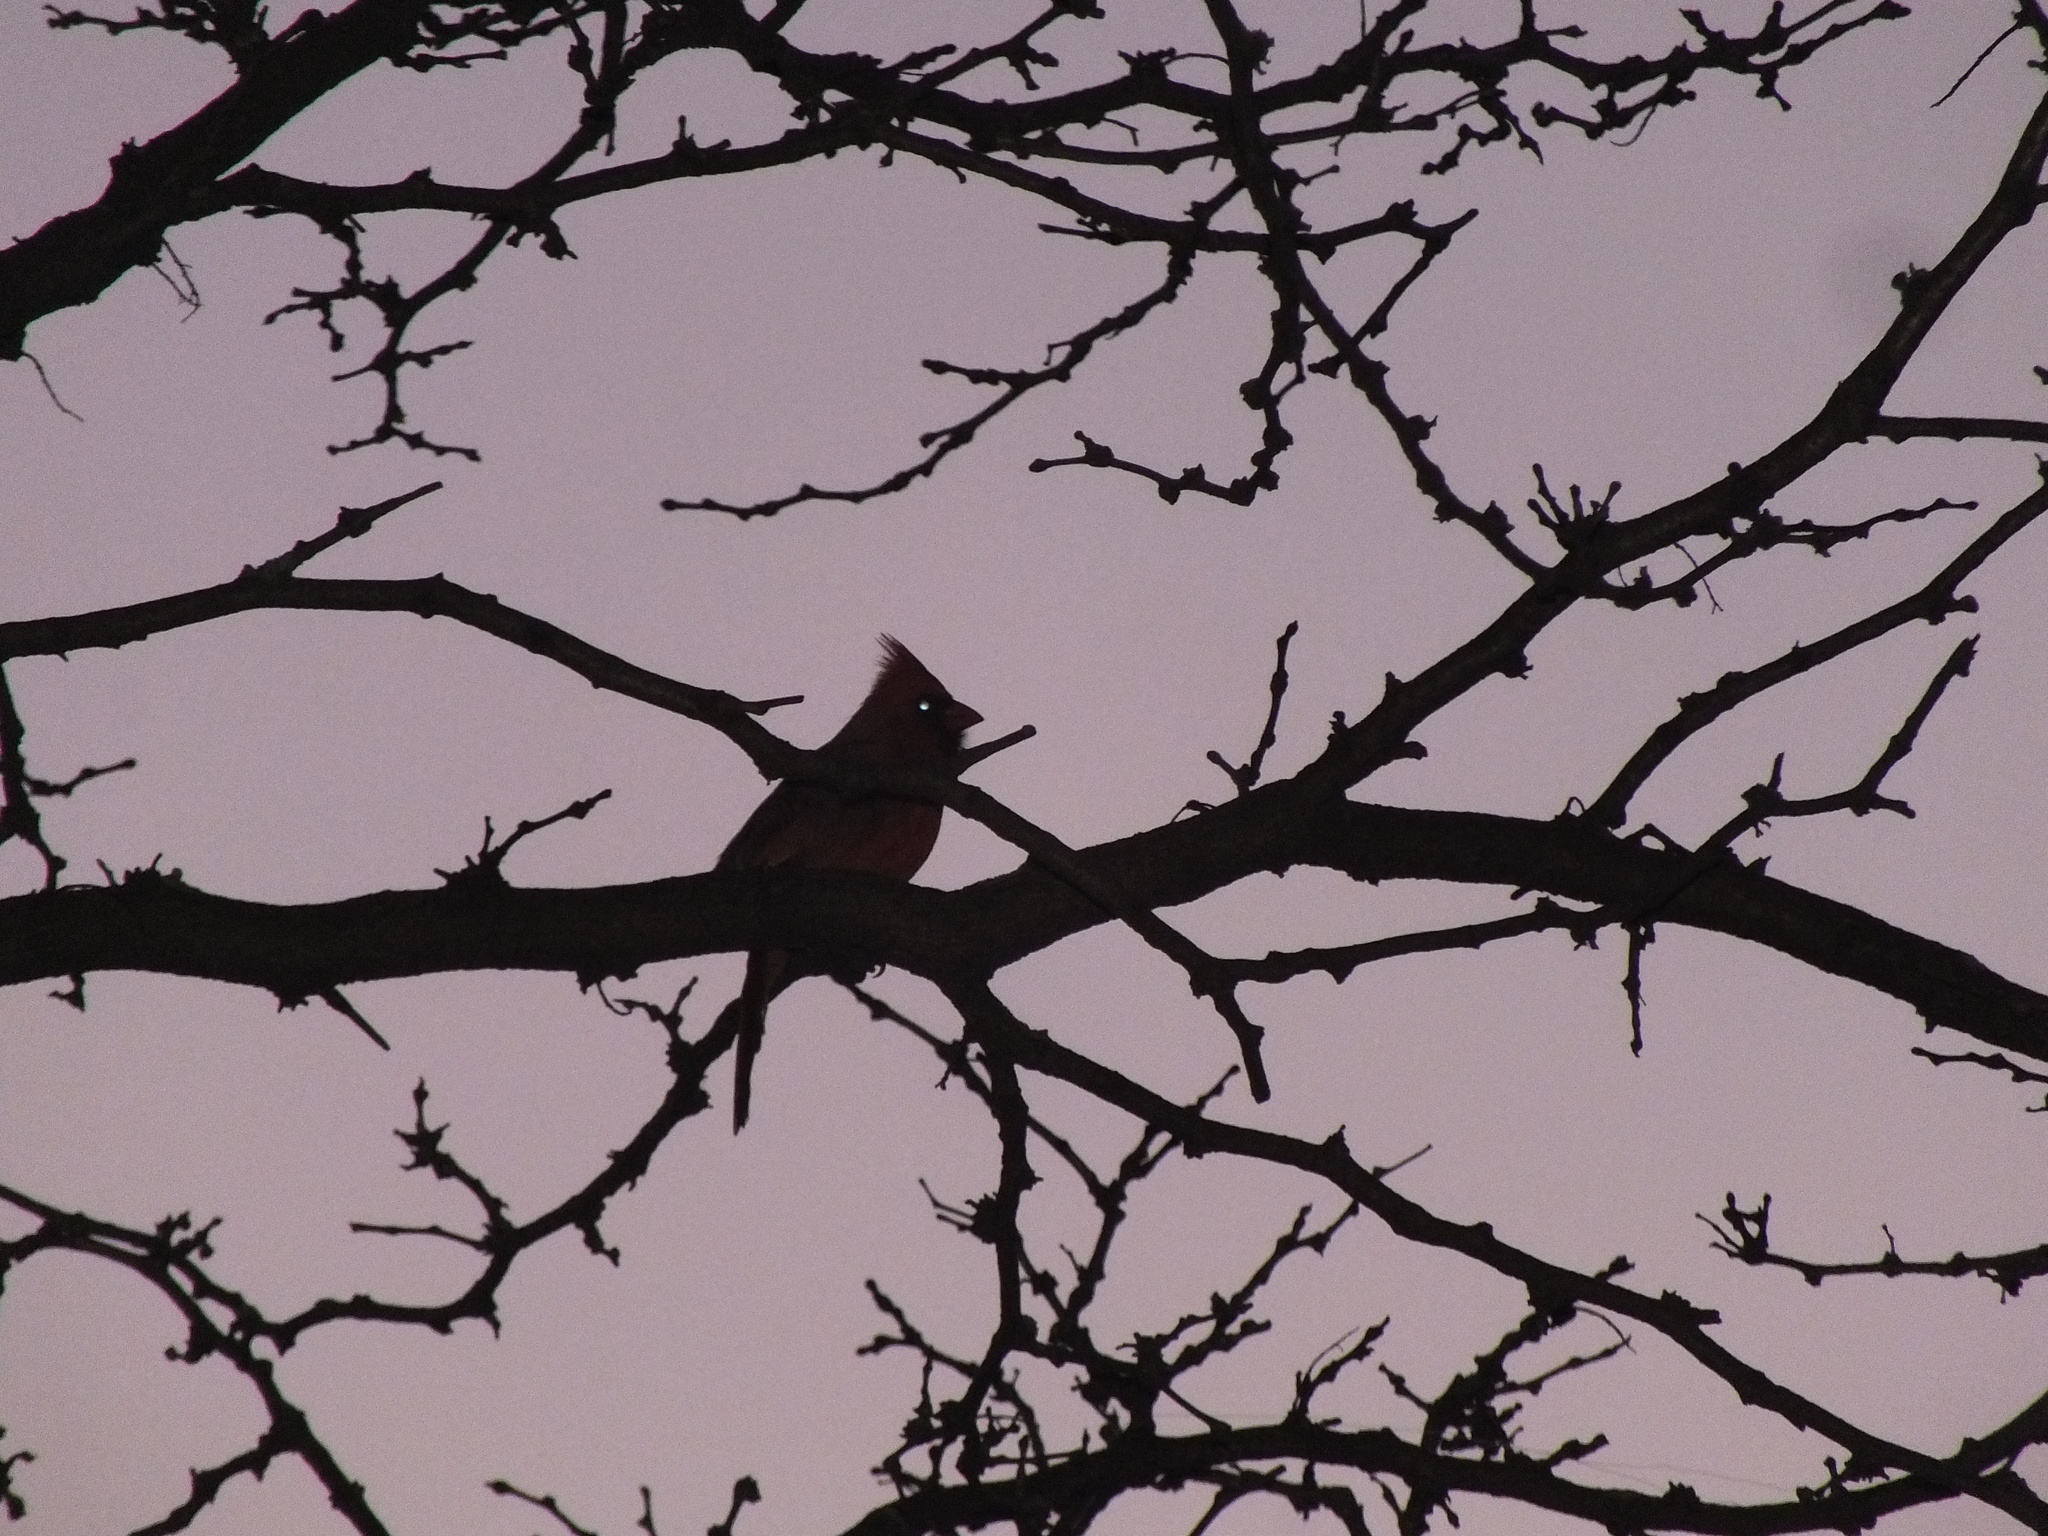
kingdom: Animalia
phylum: Chordata
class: Aves
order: Passeriformes
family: Cardinalidae
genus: Cardinalis
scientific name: Cardinalis cardinalis
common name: Northern cardinal
